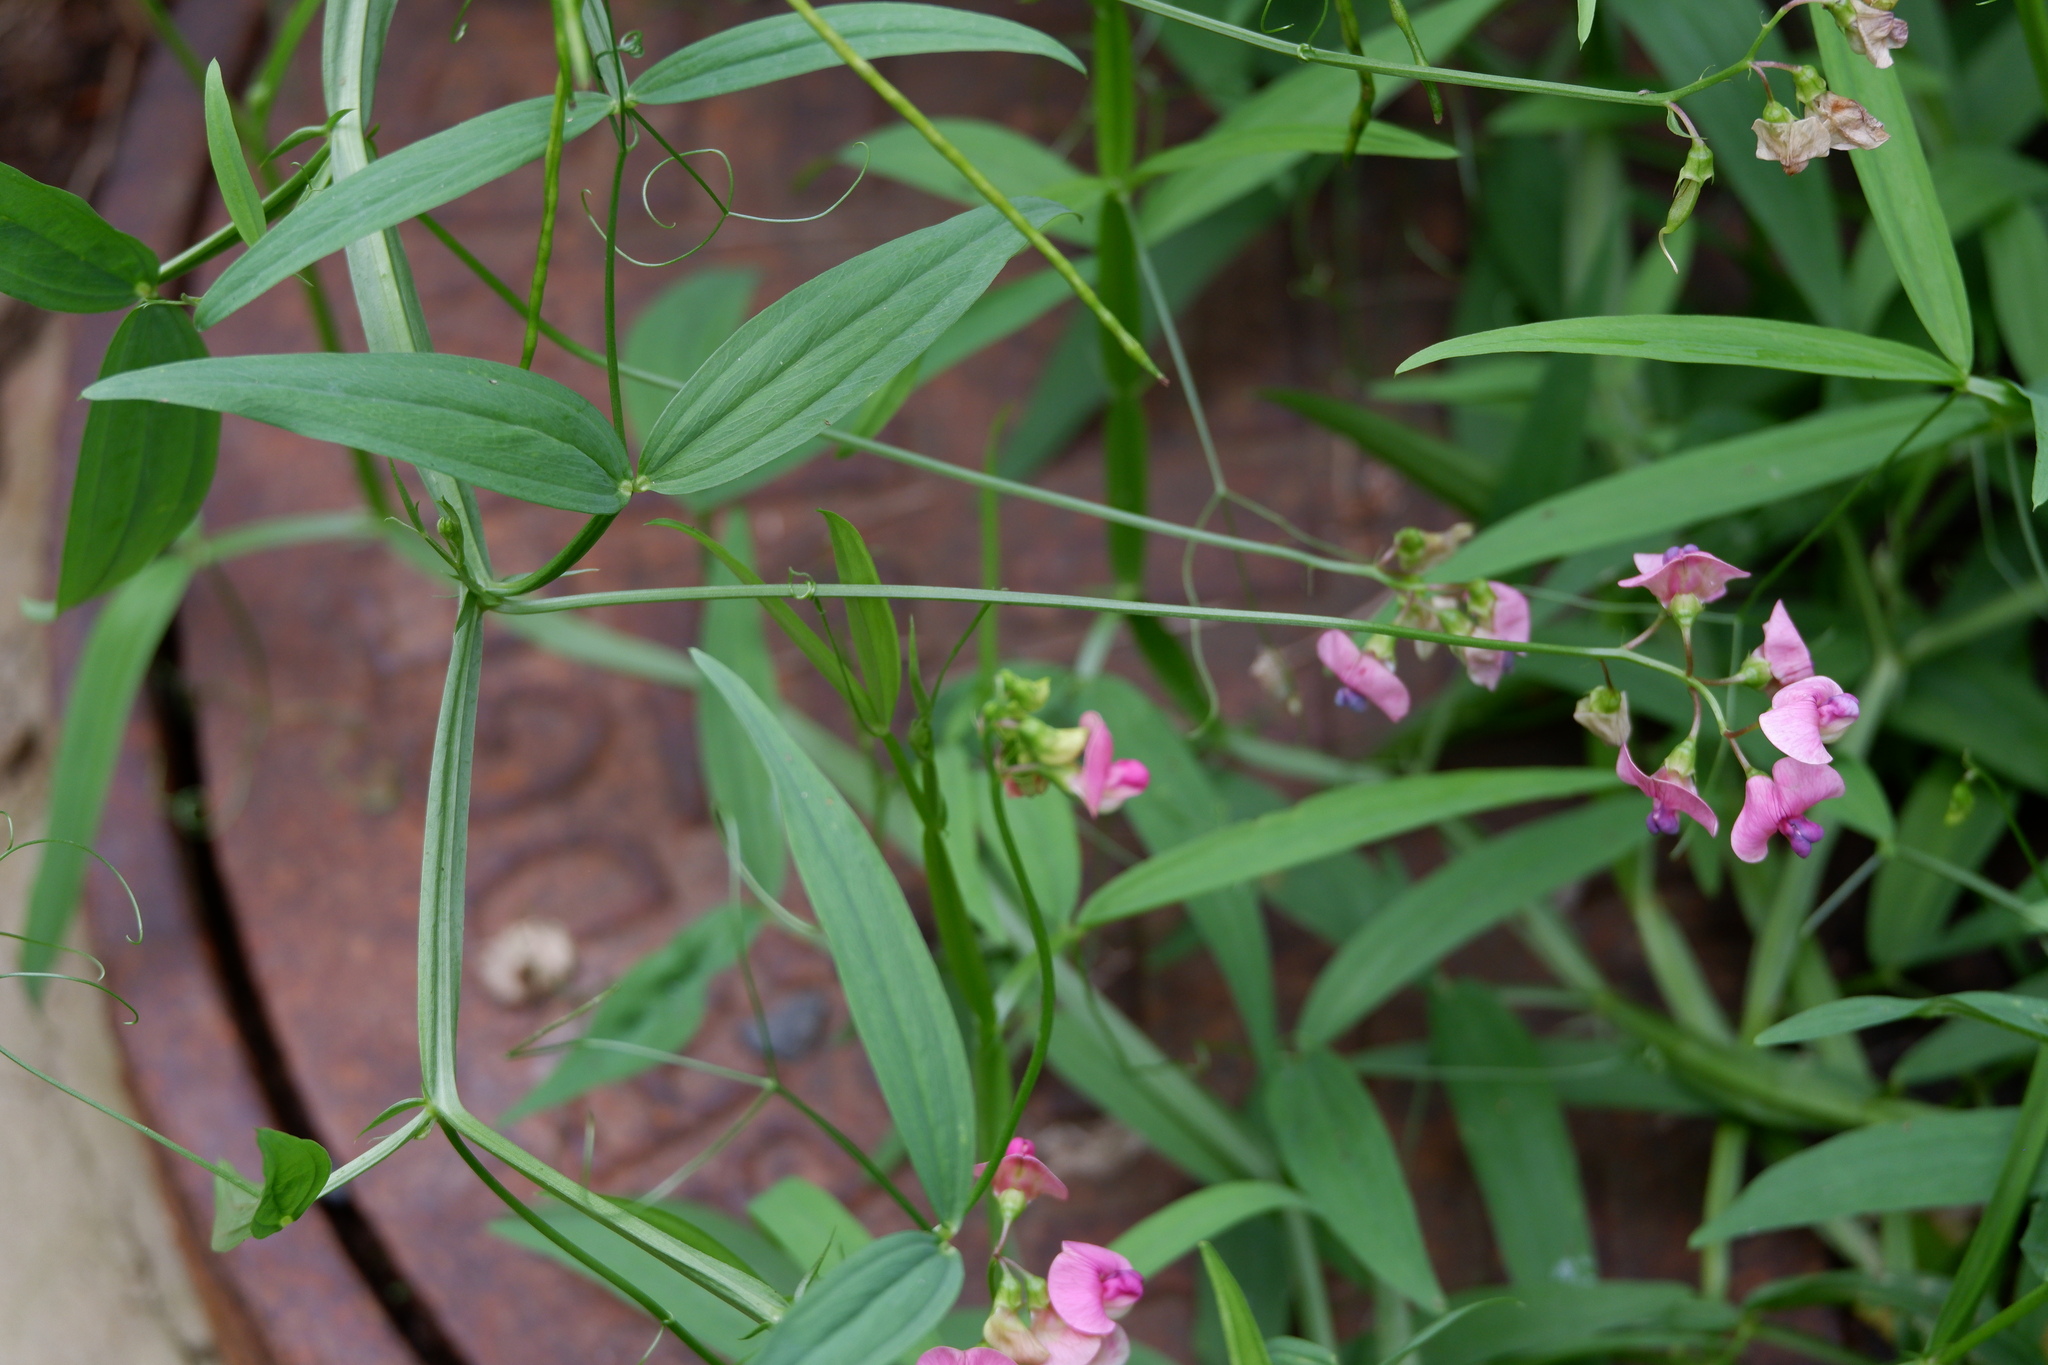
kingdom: Plantae
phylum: Tracheophyta
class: Magnoliopsida
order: Fabales
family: Fabaceae
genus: Lathyrus
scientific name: Lathyrus sylvestris
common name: Flat pea
